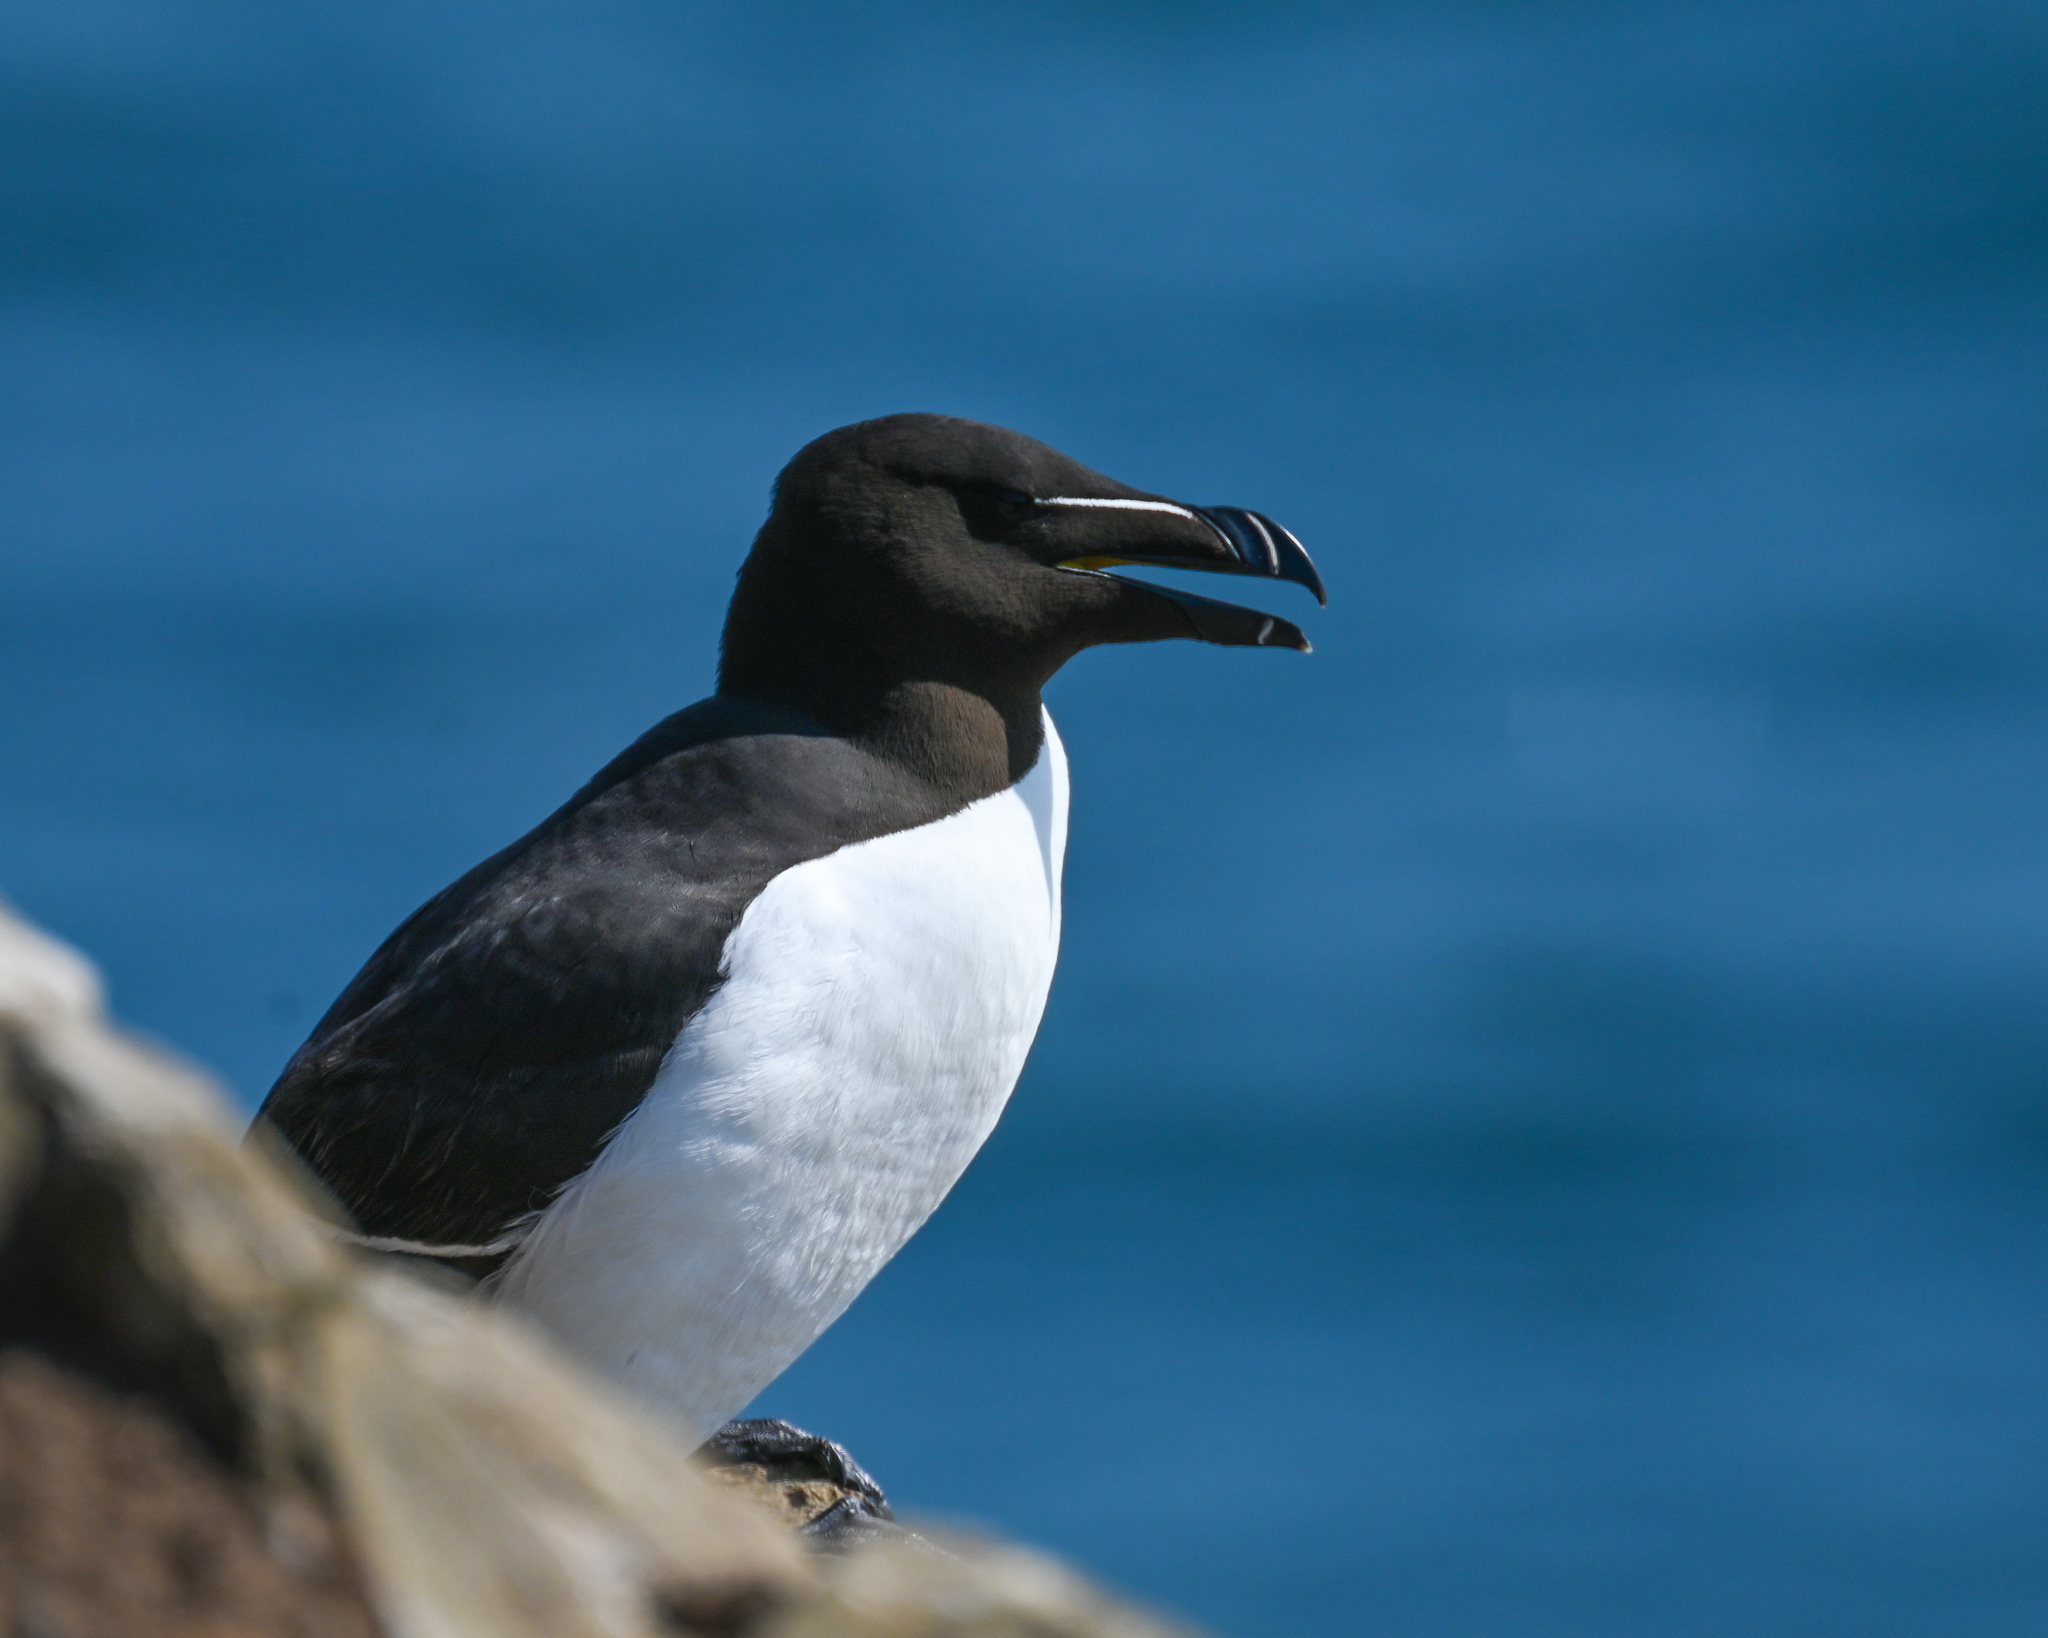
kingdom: Animalia
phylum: Chordata
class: Aves
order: Charadriiformes
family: Alcidae
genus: Alca
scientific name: Alca torda
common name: Razorbill
